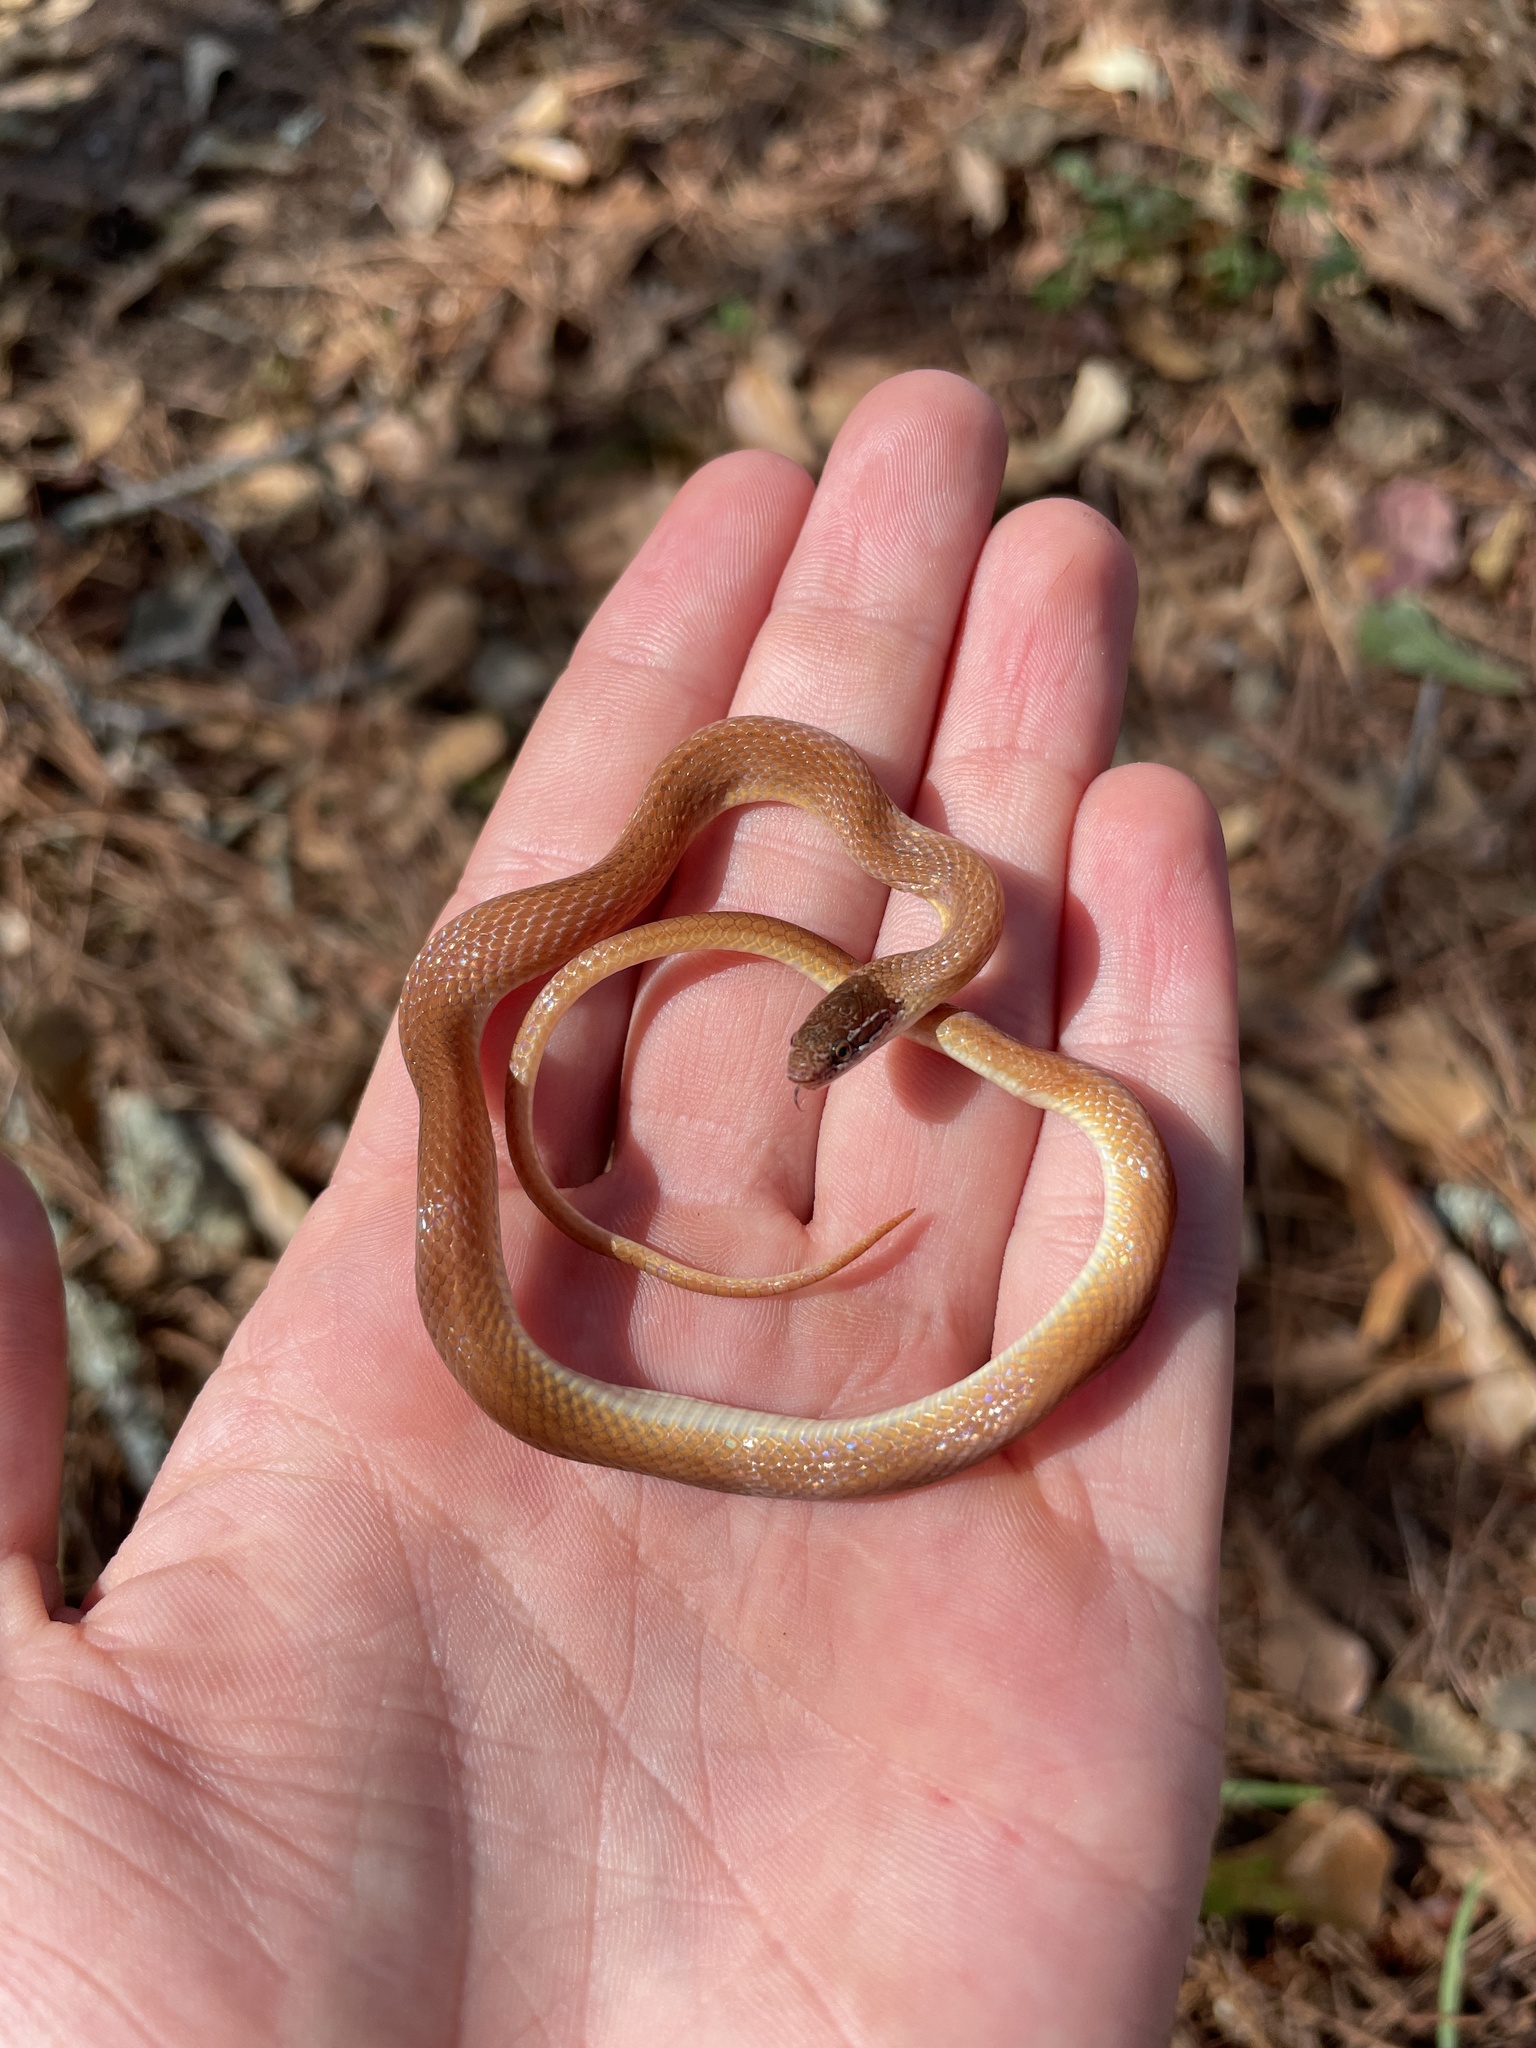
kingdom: Animalia
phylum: Chordata
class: Squamata
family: Colubridae
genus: Rhadinaea
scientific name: Rhadinaea flavilata
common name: Pine woods littersnake
